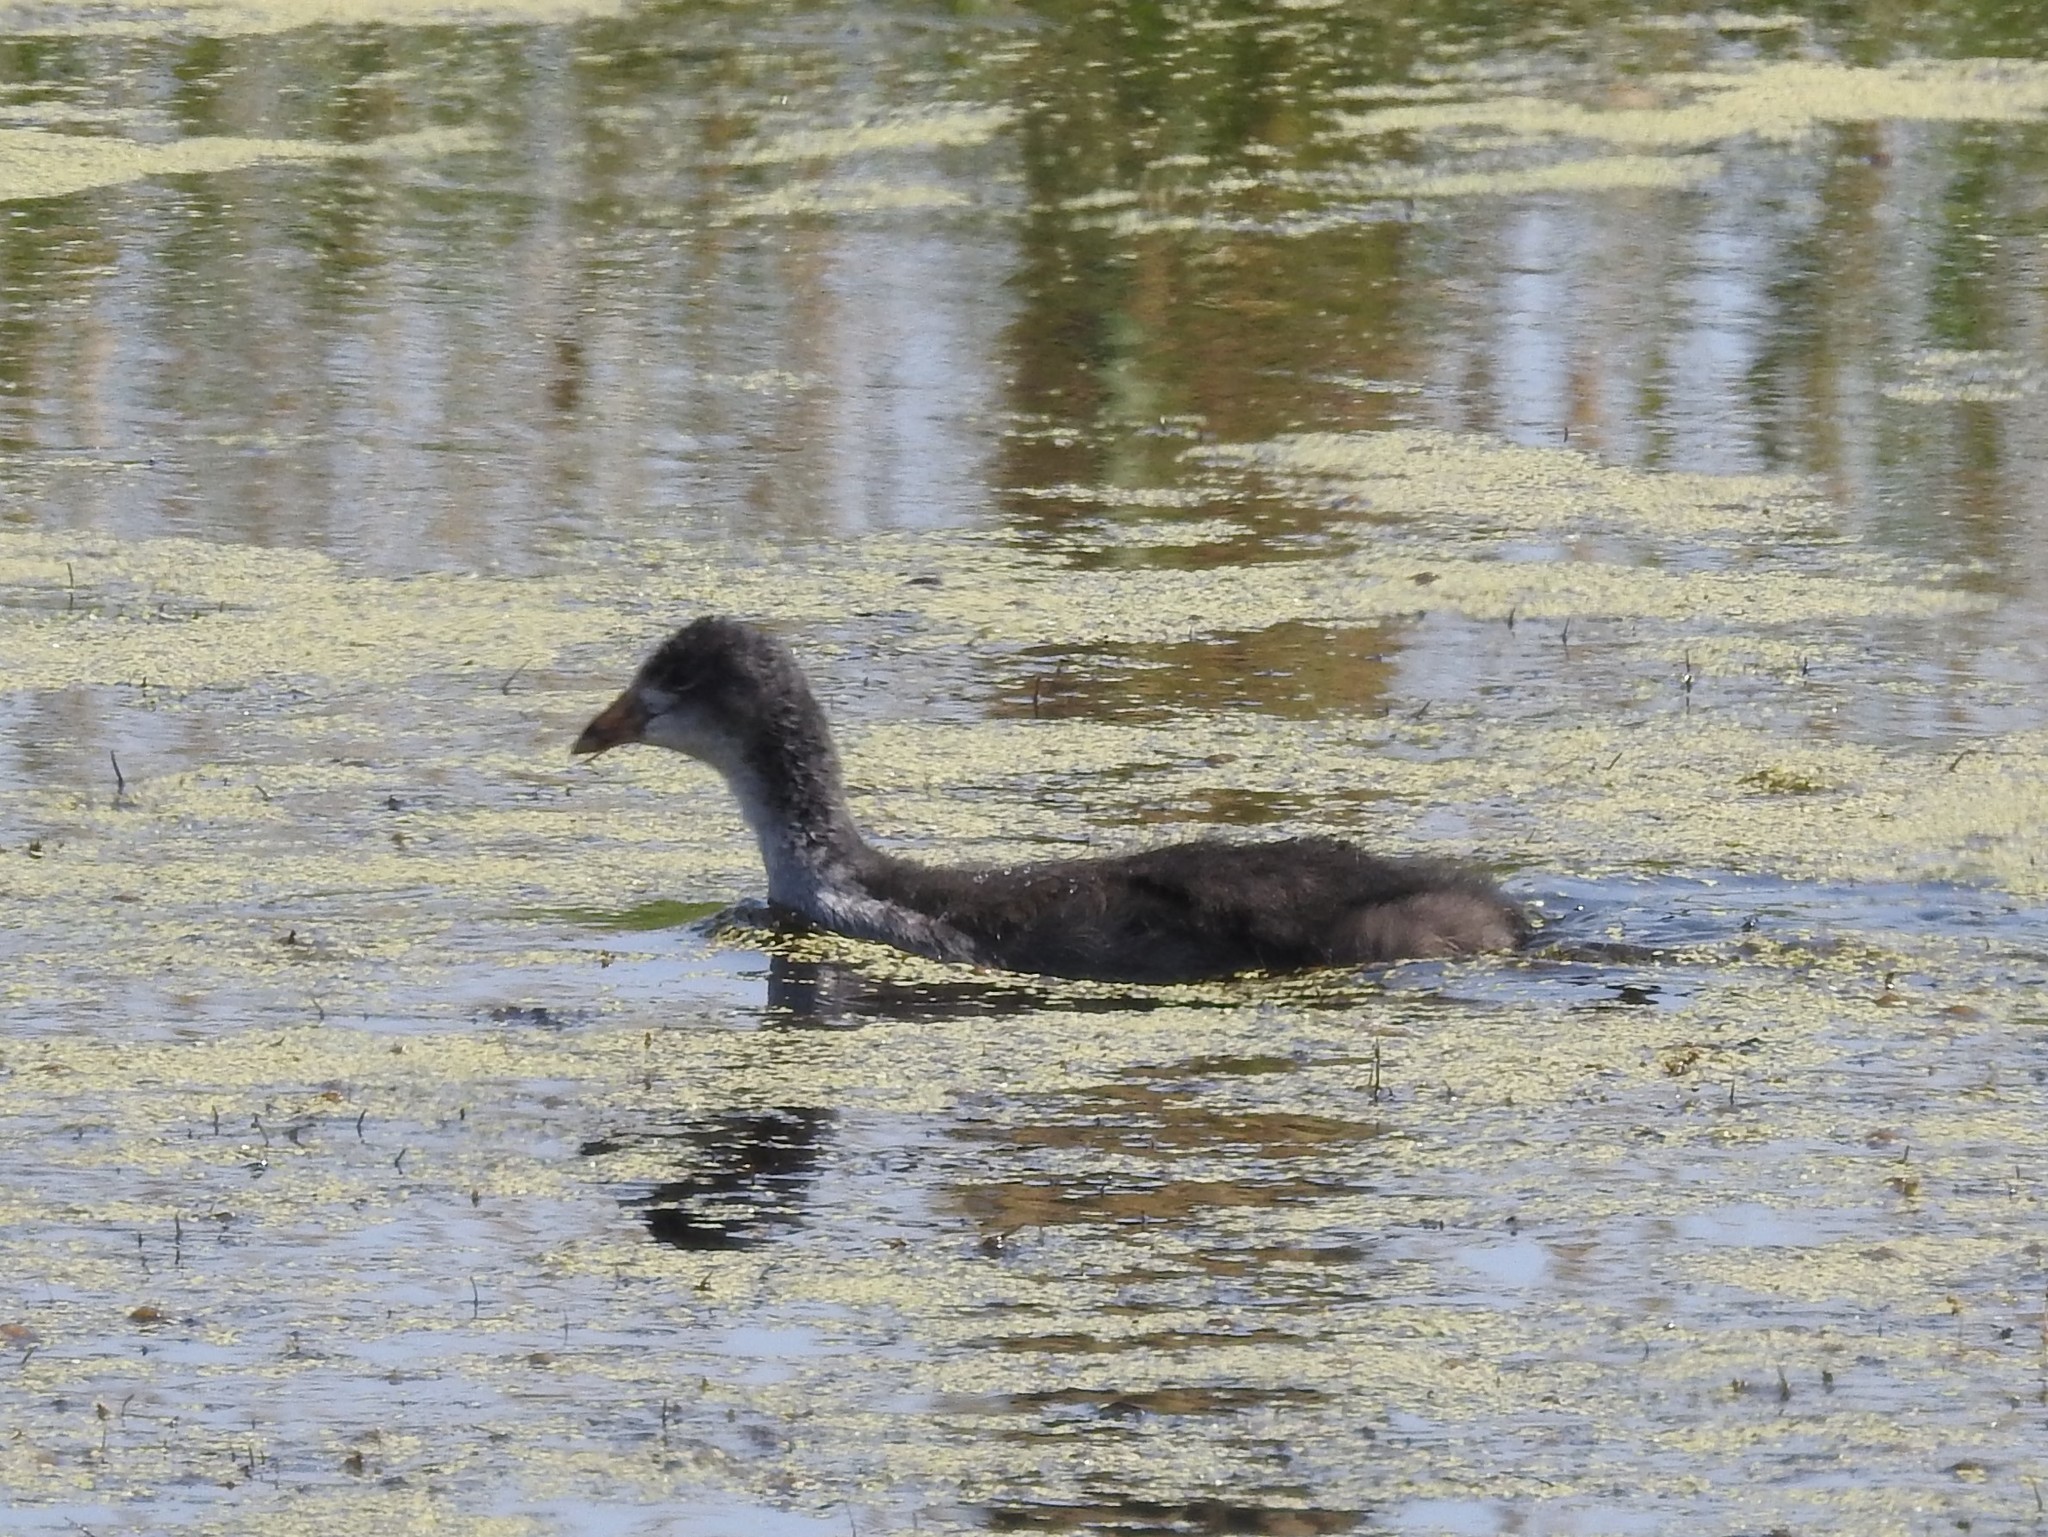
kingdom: Animalia
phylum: Chordata
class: Aves
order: Gruiformes
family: Rallidae
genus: Fulica
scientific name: Fulica americana
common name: American coot
